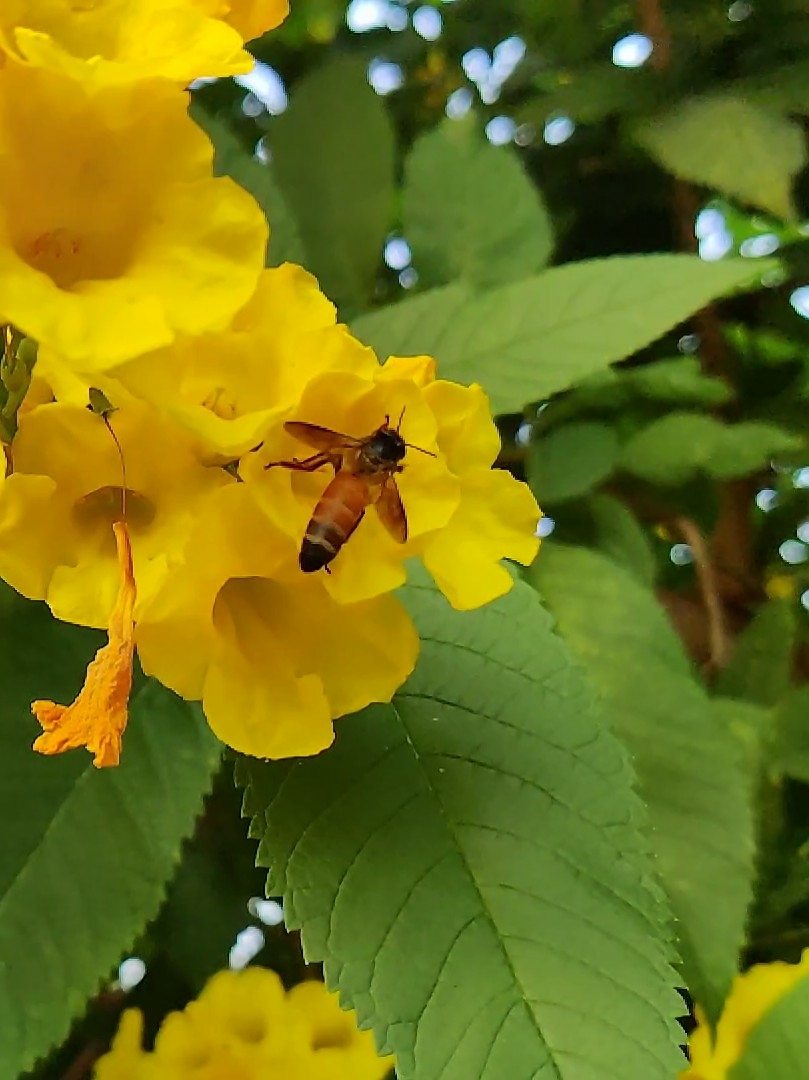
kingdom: Animalia
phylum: Arthropoda
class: Insecta
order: Hymenoptera
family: Apidae
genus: Apis
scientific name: Apis dorsata
